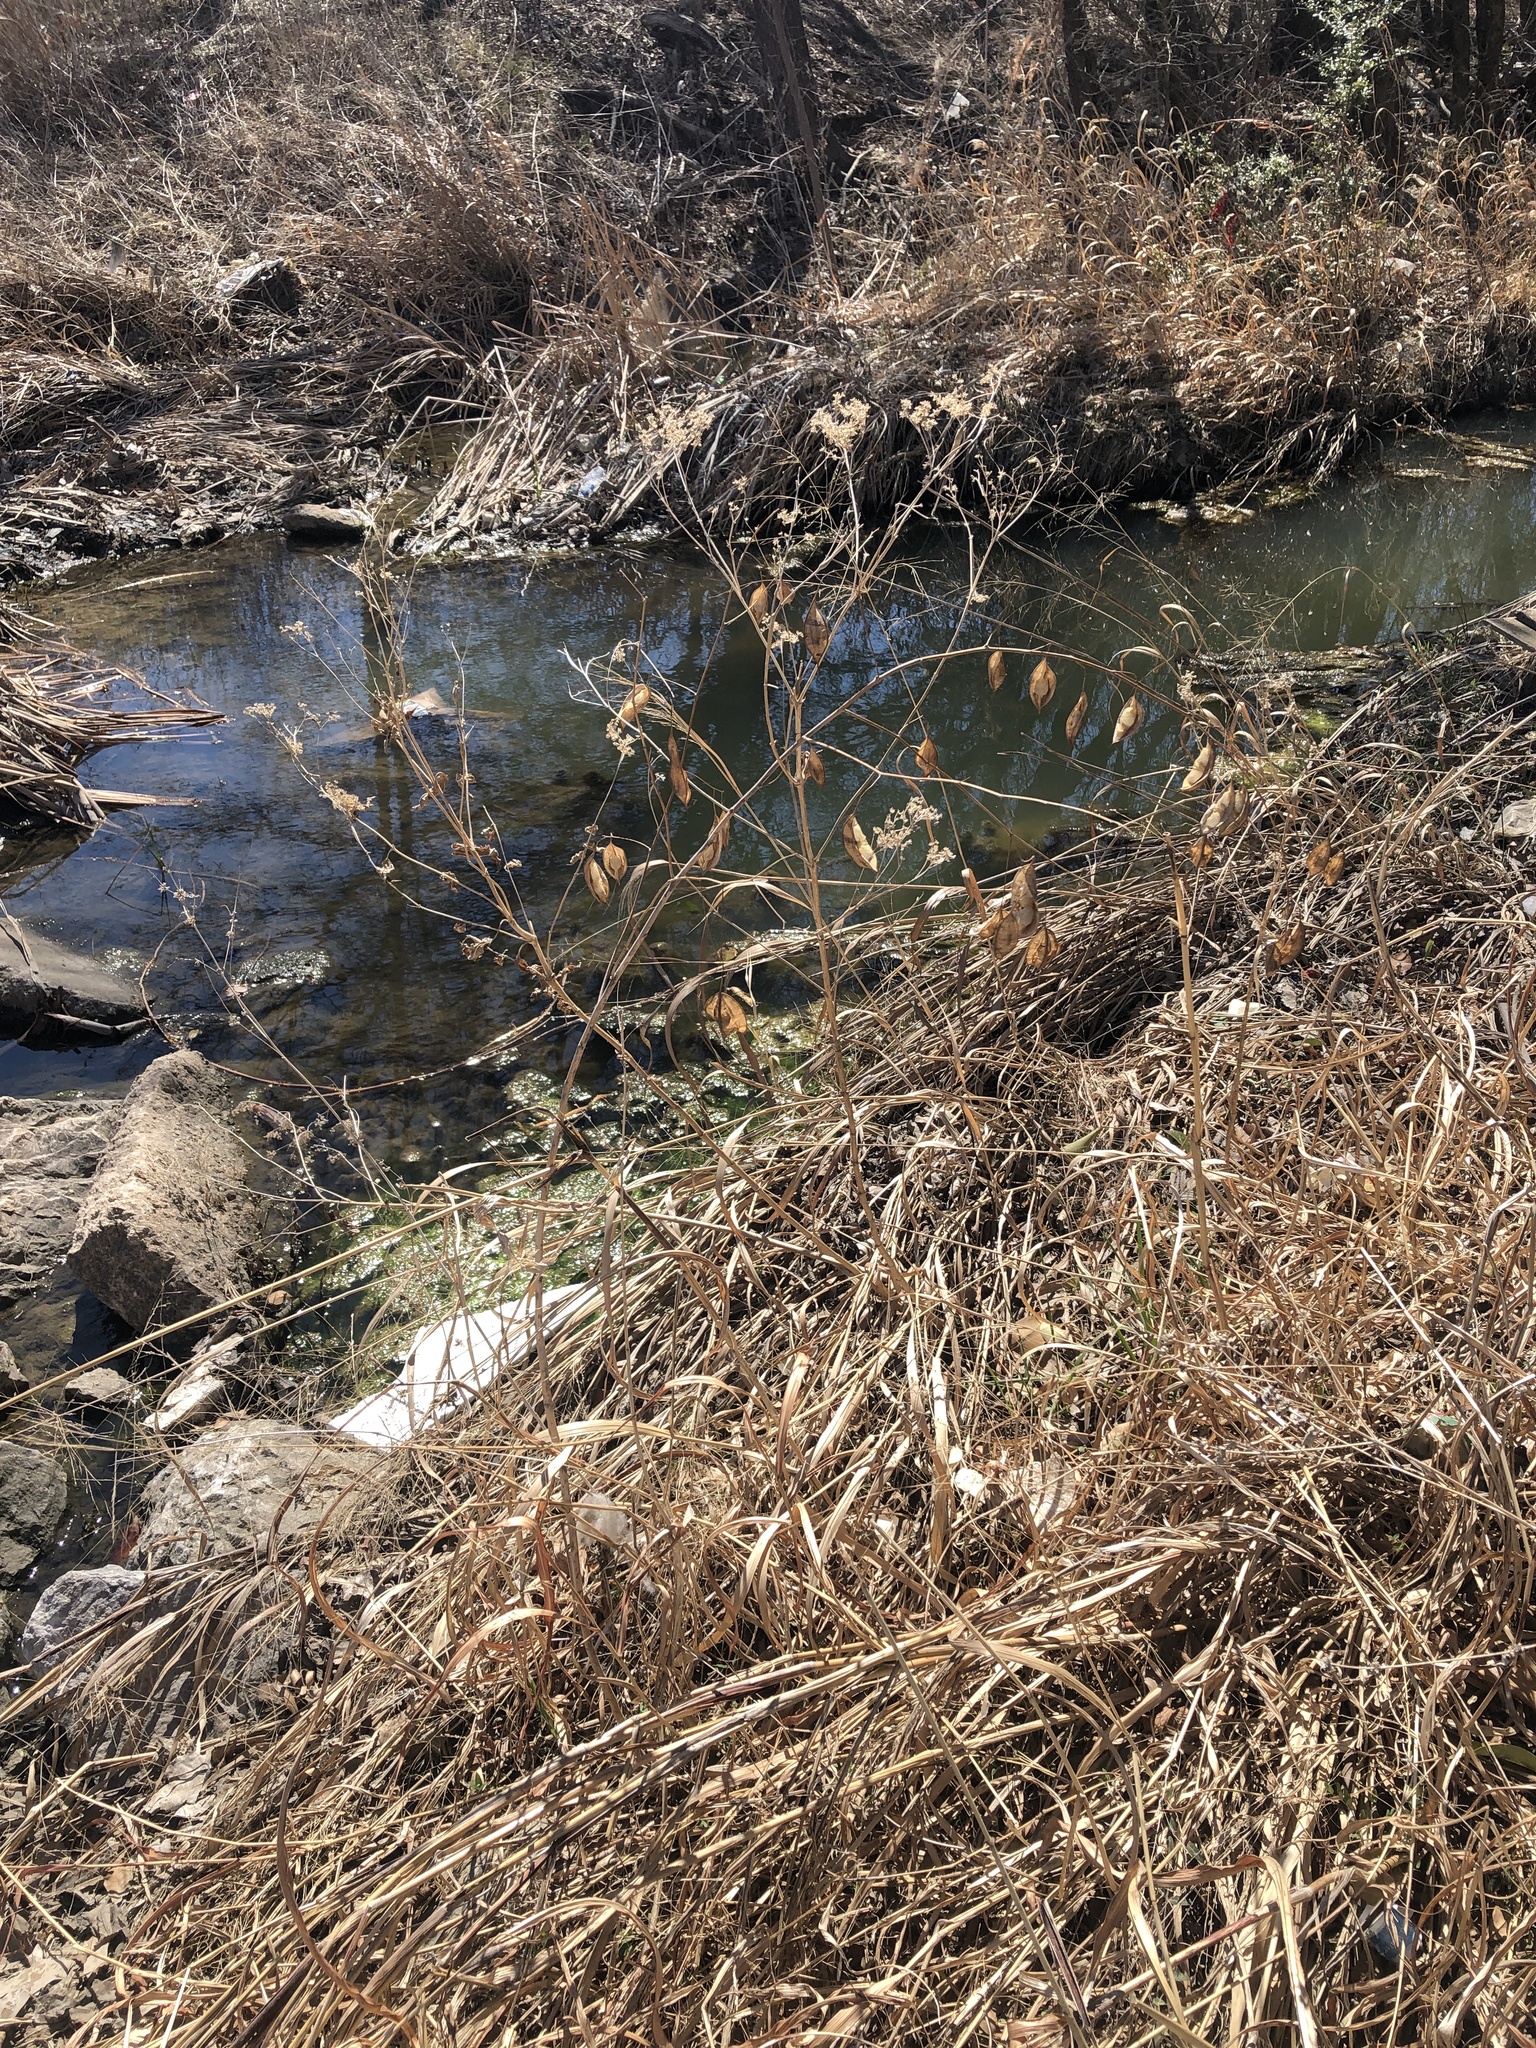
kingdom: Plantae
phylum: Tracheophyta
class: Magnoliopsida
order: Fabales
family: Fabaceae
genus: Sesbania
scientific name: Sesbania vesicaria
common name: Bagpod
